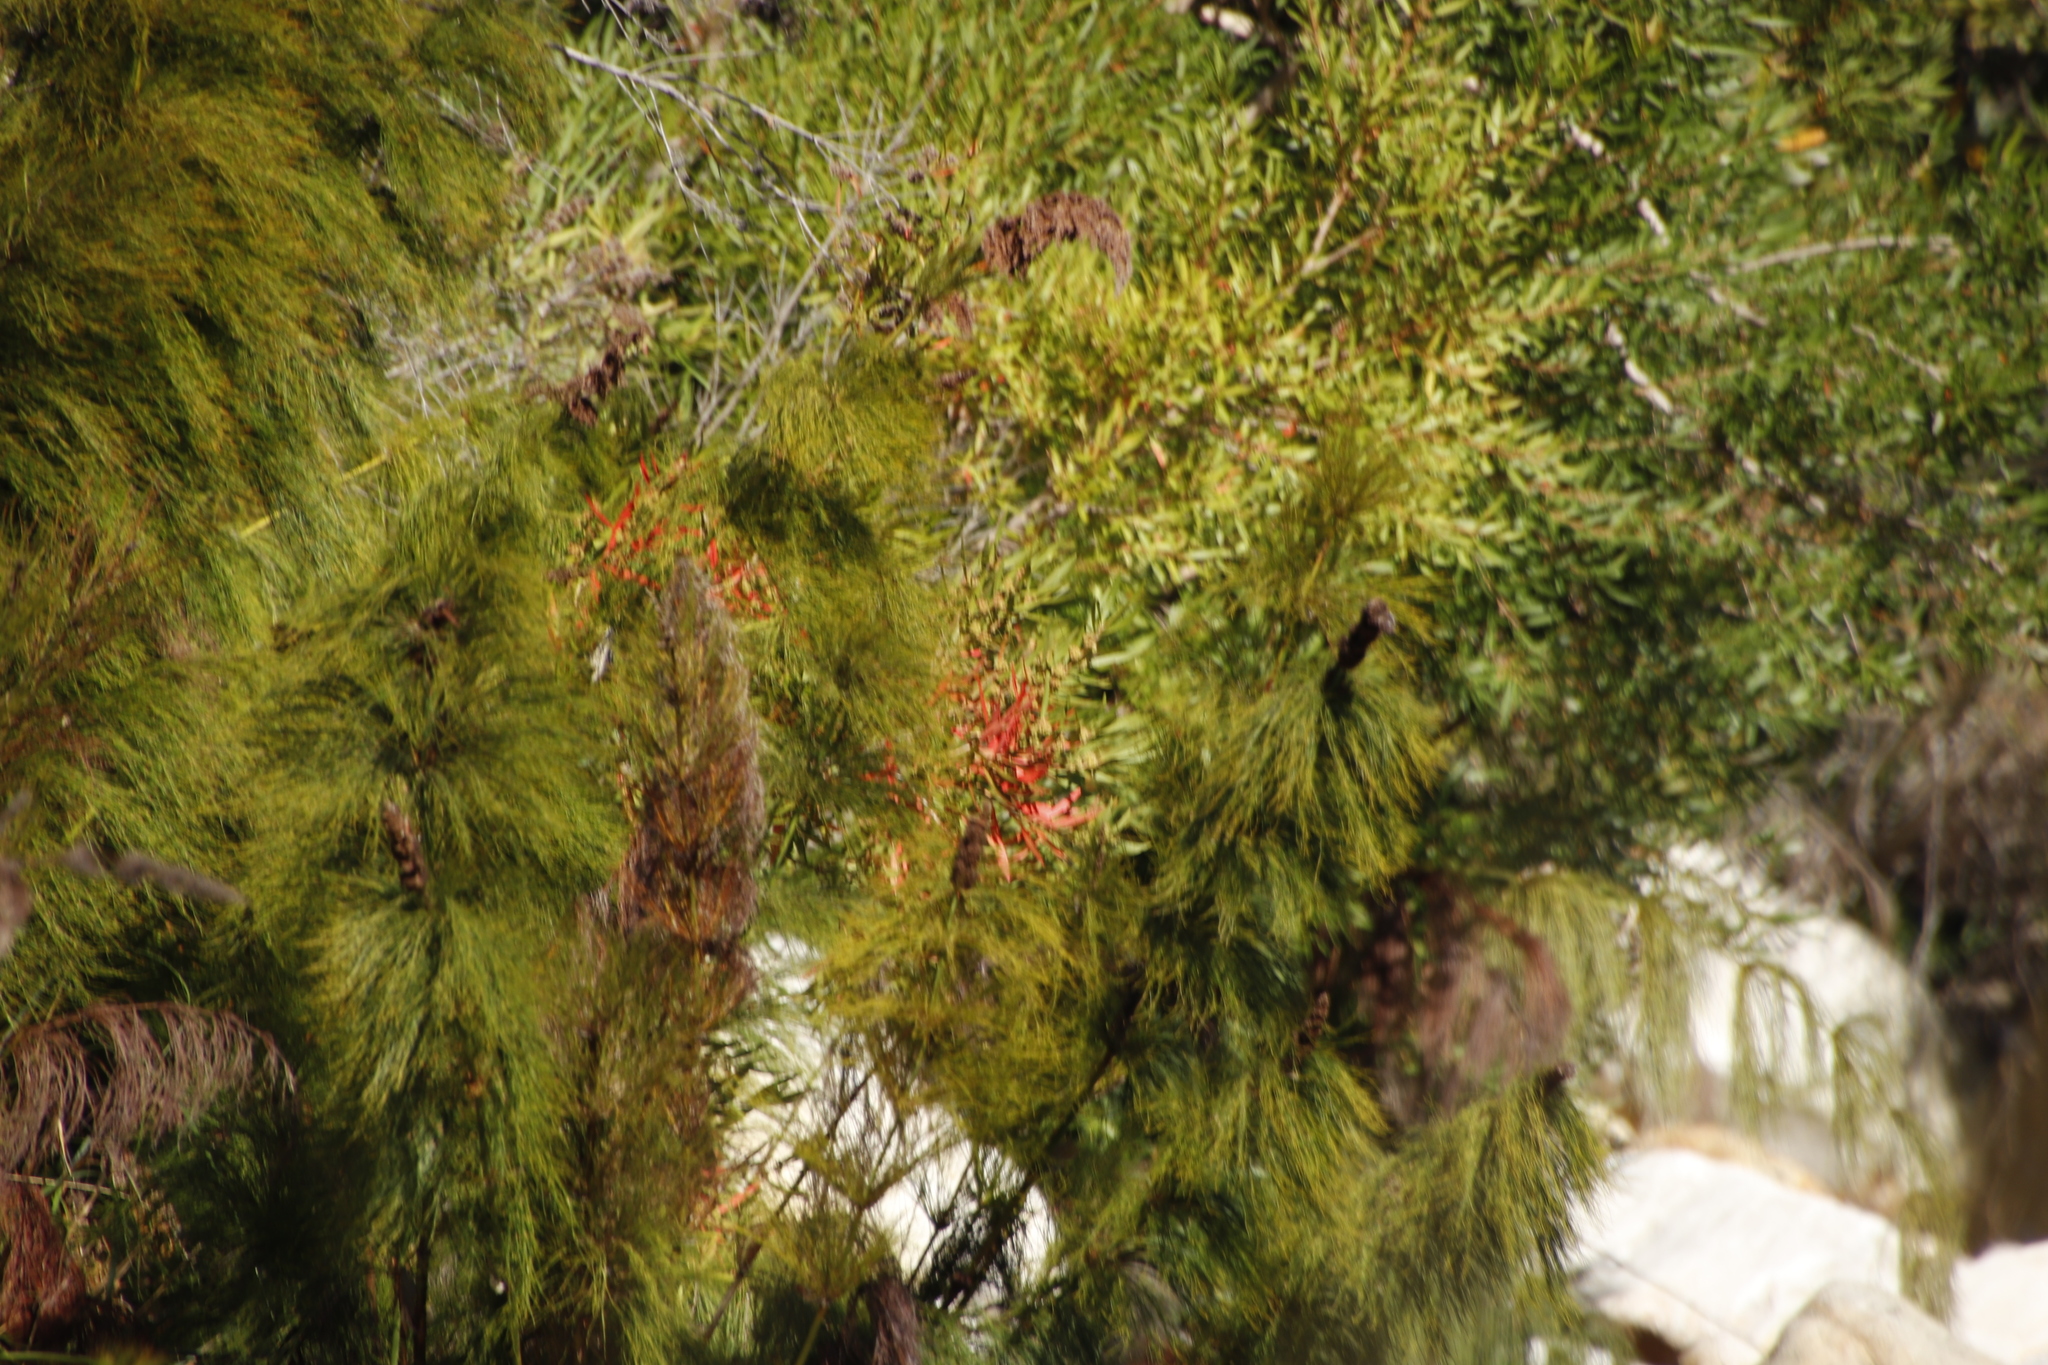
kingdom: Plantae
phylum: Tracheophyta
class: Magnoliopsida
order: Myrtales
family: Myrtaceae
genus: Callistemon
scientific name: Callistemon lanceolatus
